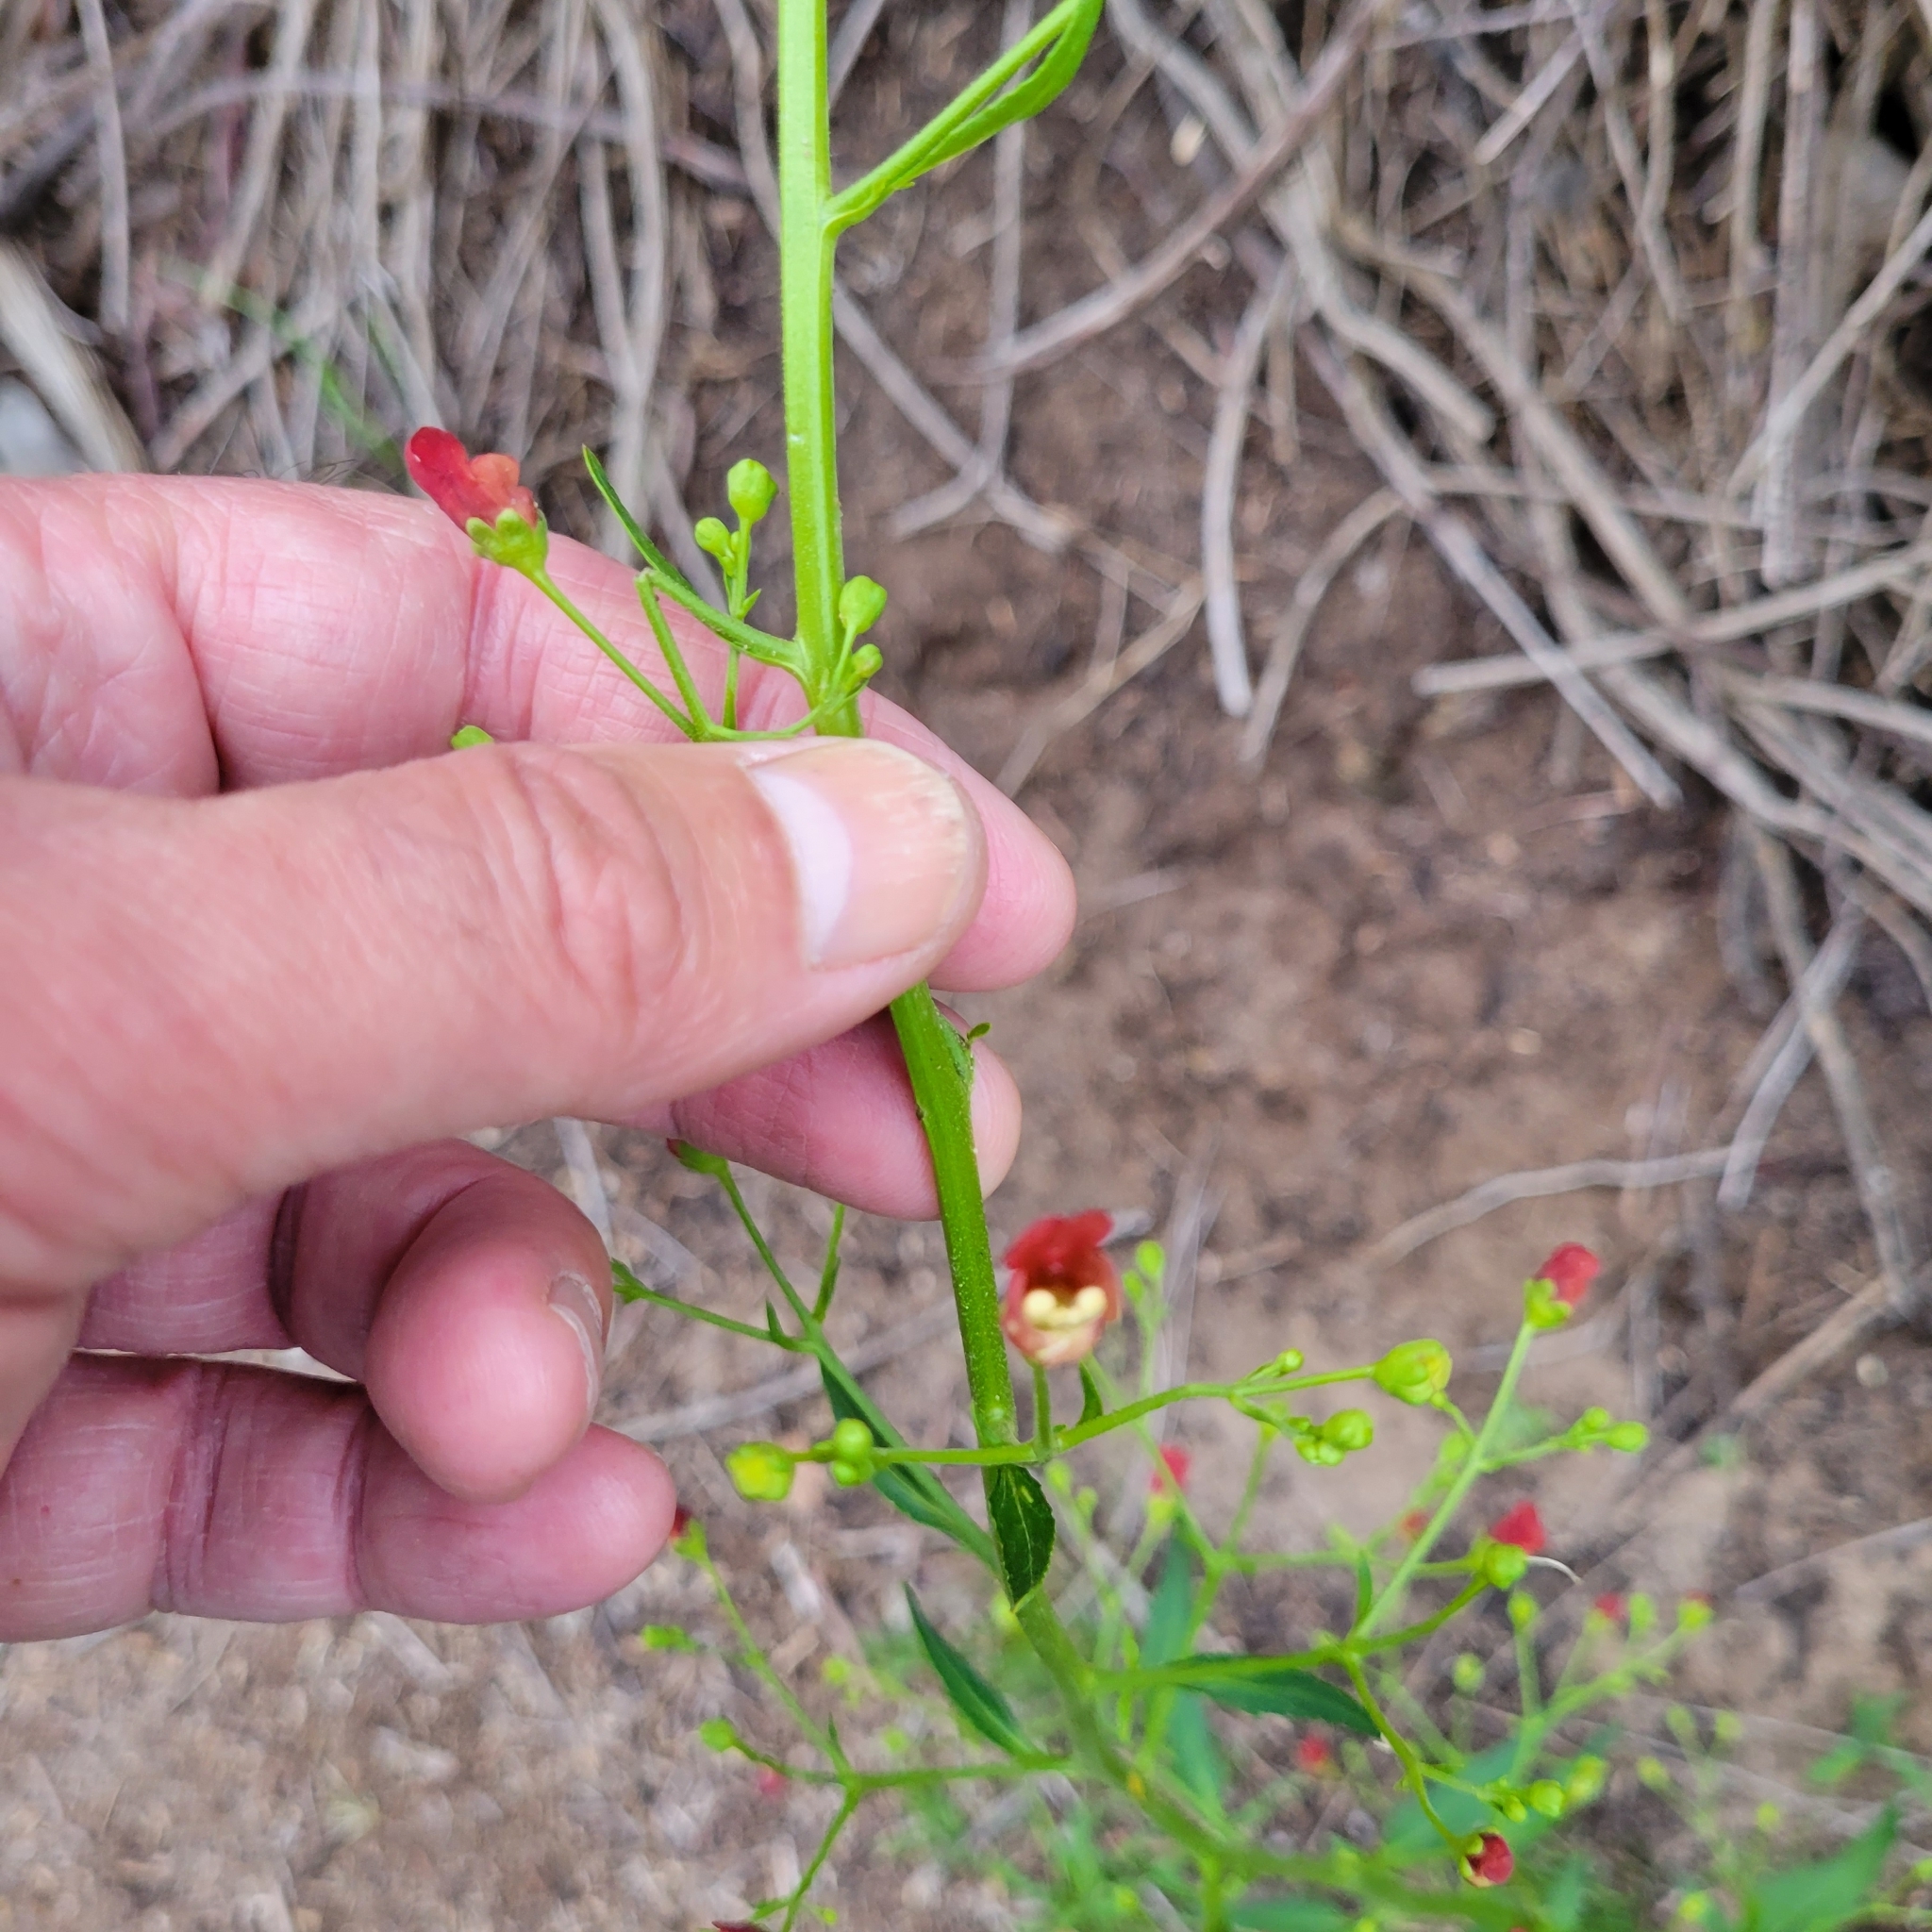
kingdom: Plantae
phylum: Tracheophyta
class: Magnoliopsida
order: Lamiales
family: Scrophulariaceae
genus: Scrophularia
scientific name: Scrophularia californica
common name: California figwort
